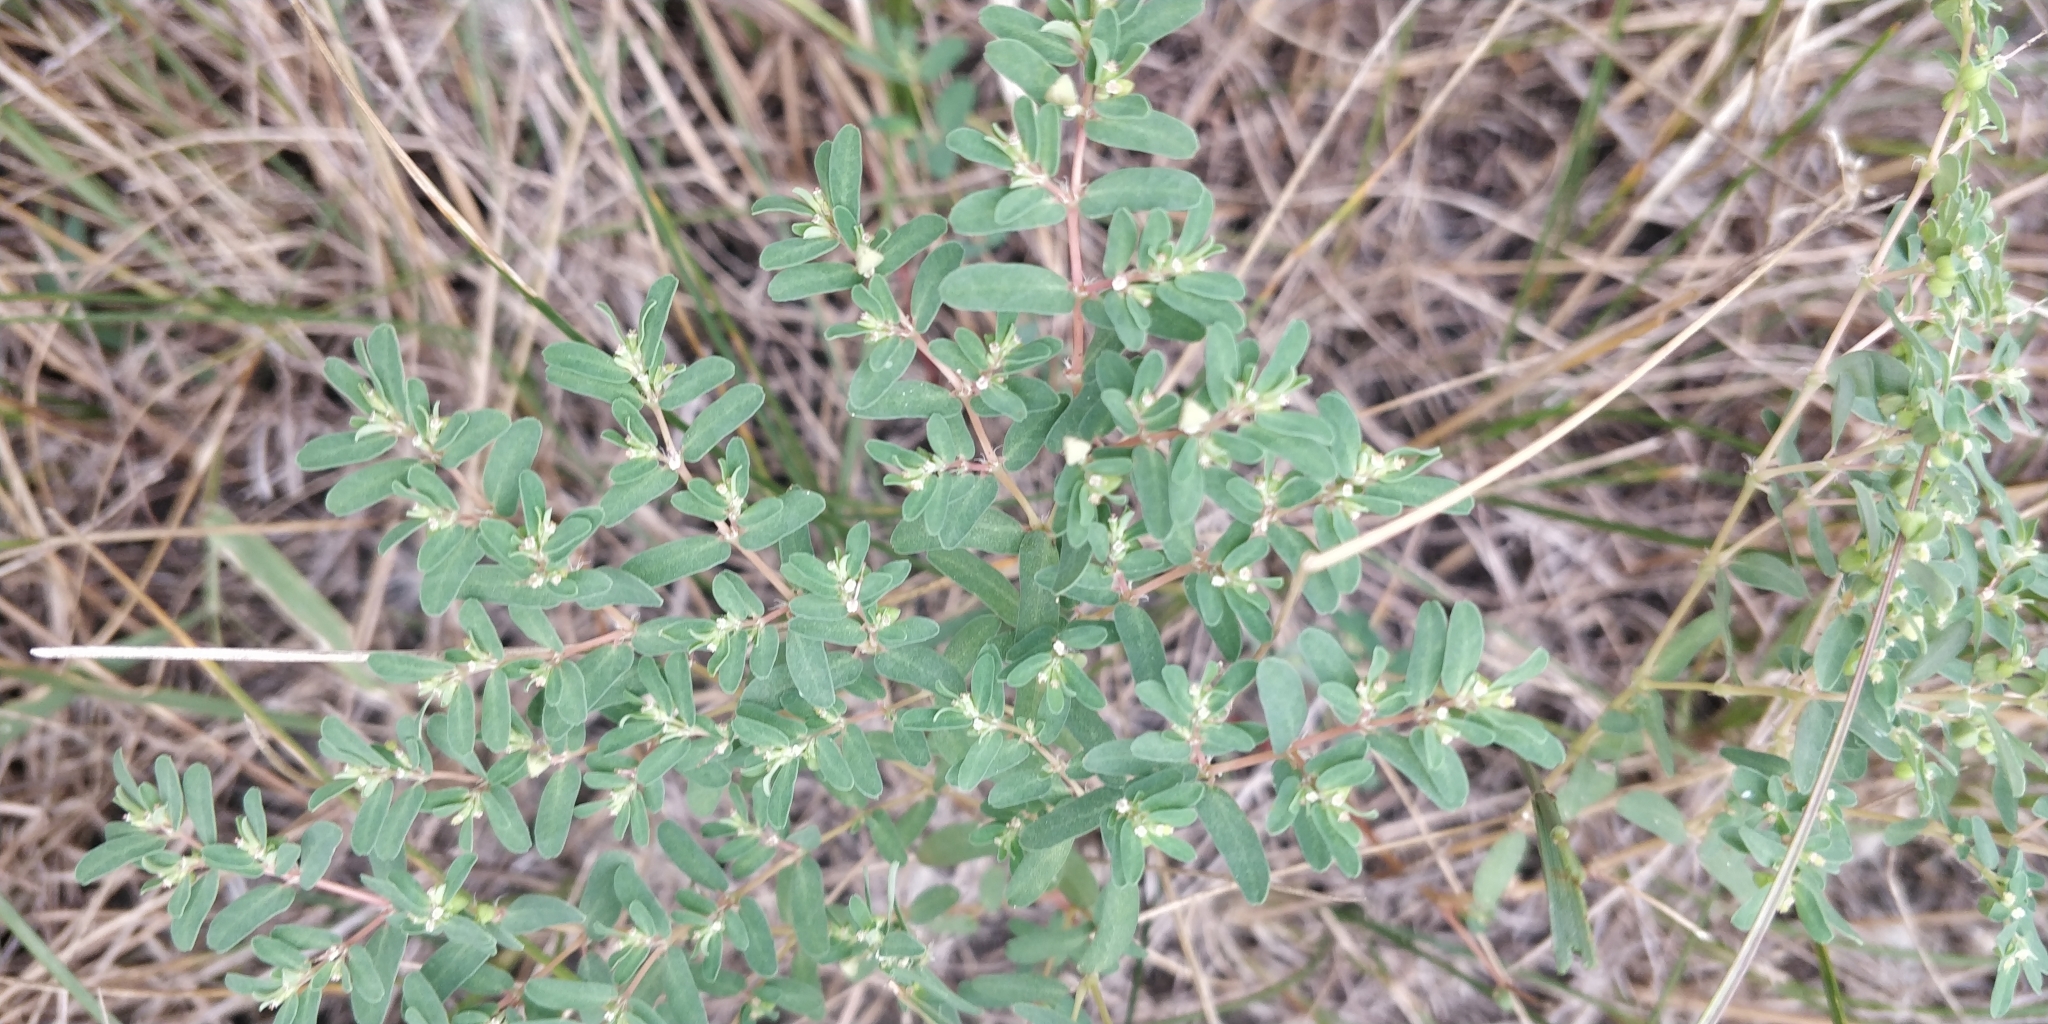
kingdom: Plantae
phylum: Tracheophyta
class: Magnoliopsida
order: Malpighiales
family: Euphorbiaceae
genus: Euphorbia
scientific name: Euphorbia glyptosperma
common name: Corrugate-seeded spurge
